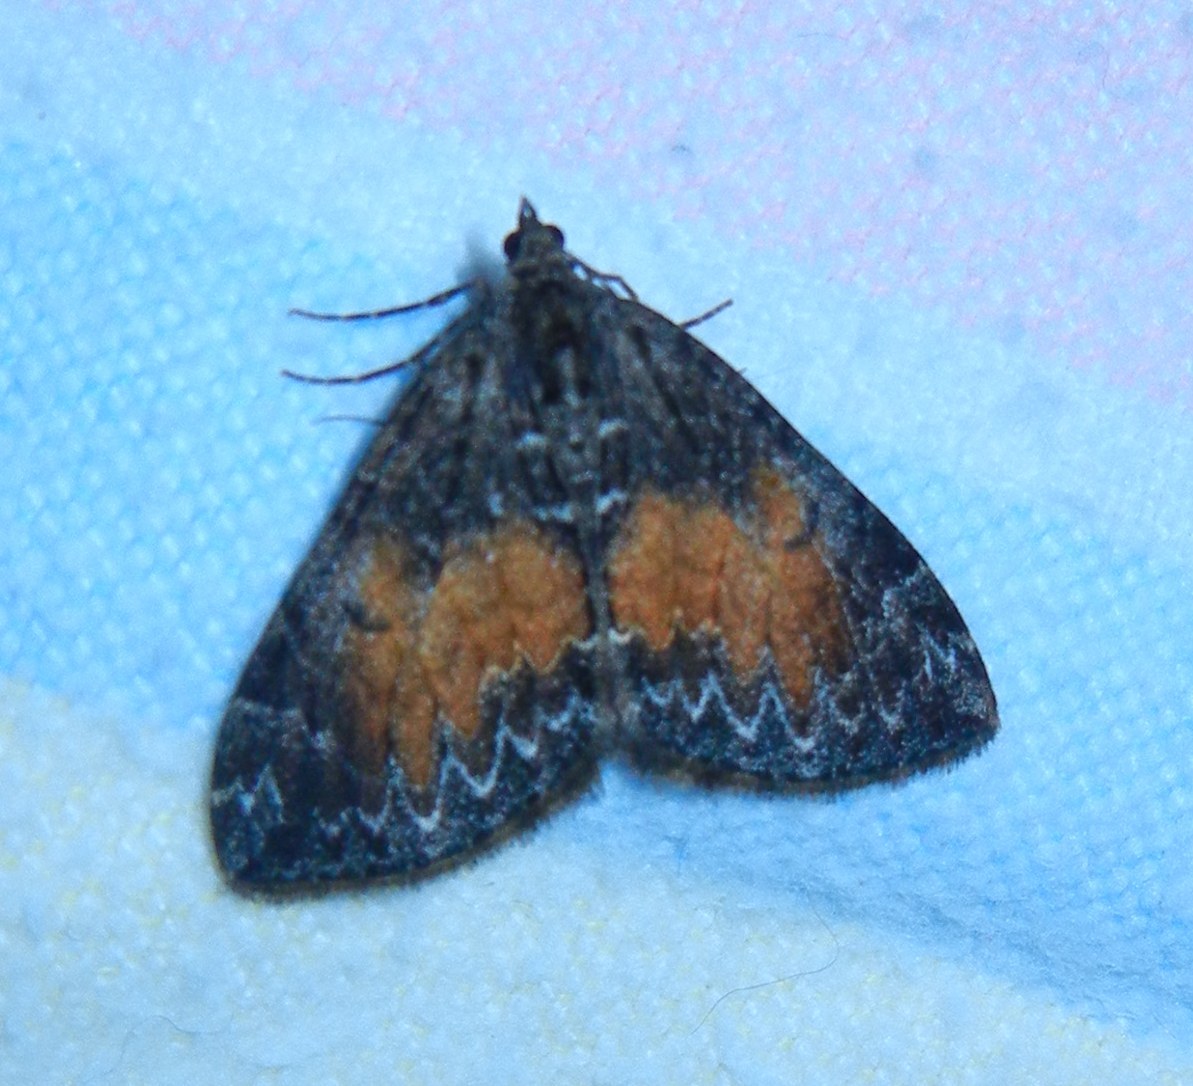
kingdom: Animalia
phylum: Arthropoda
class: Insecta
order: Lepidoptera
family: Geometridae
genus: Dysstroma
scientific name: Dysstroma truncata
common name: Common marbled carpet
